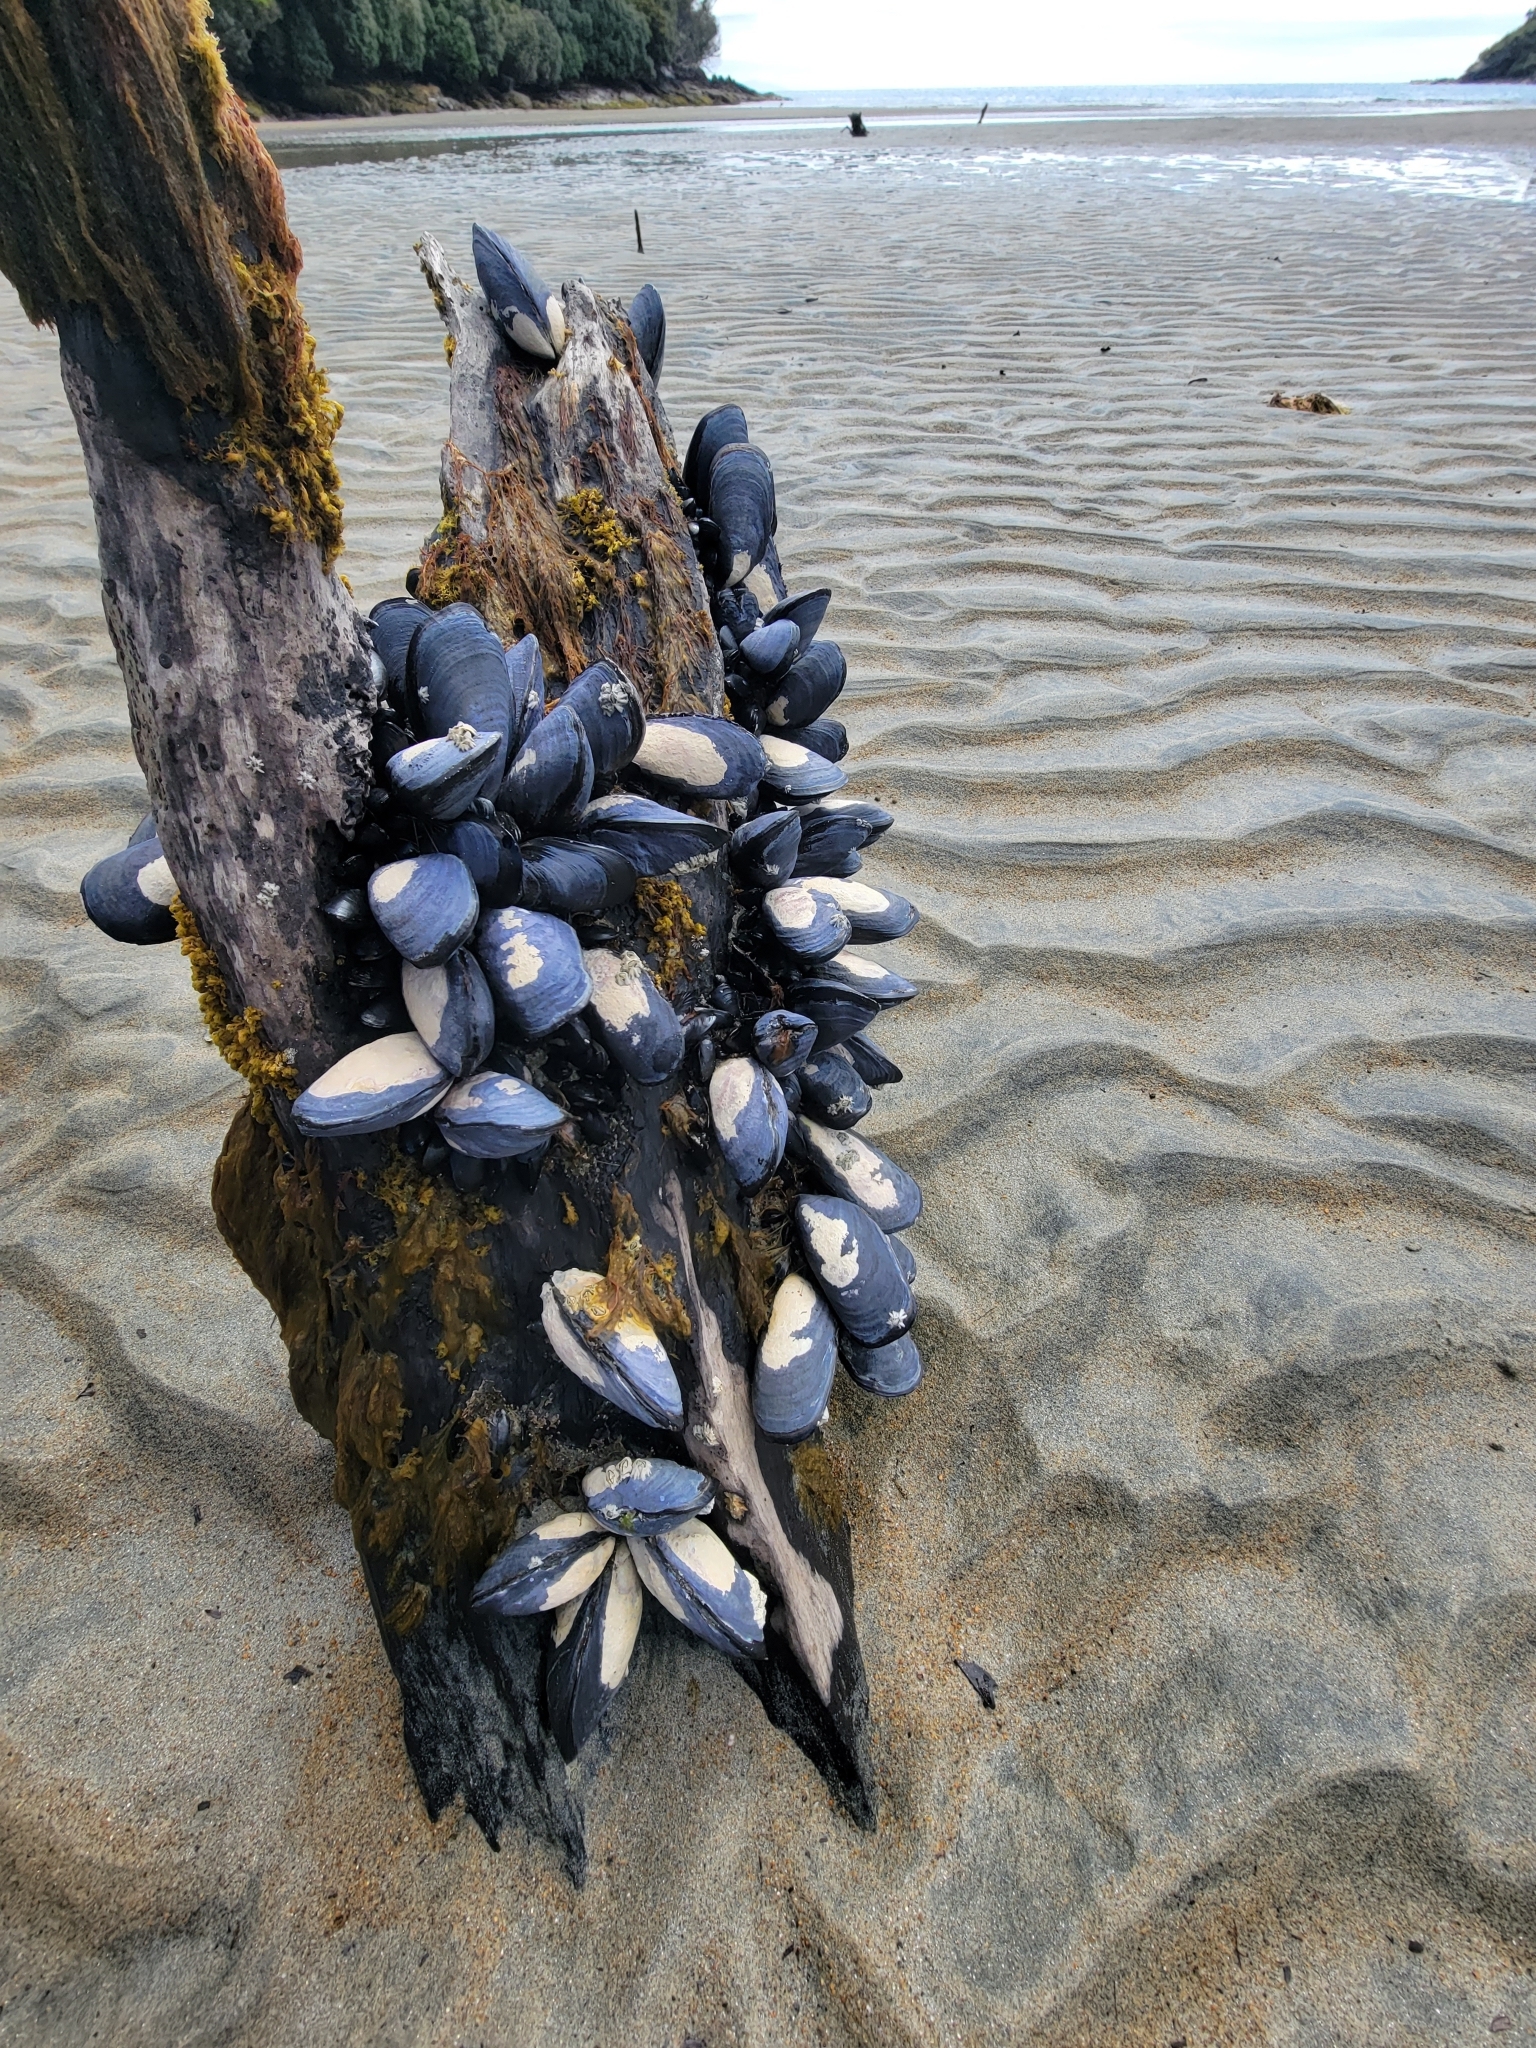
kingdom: Animalia
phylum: Mollusca
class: Bivalvia
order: Mytilida
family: Mytilidae
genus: Mytilus
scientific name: Mytilus planulatus
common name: Australian mussel
